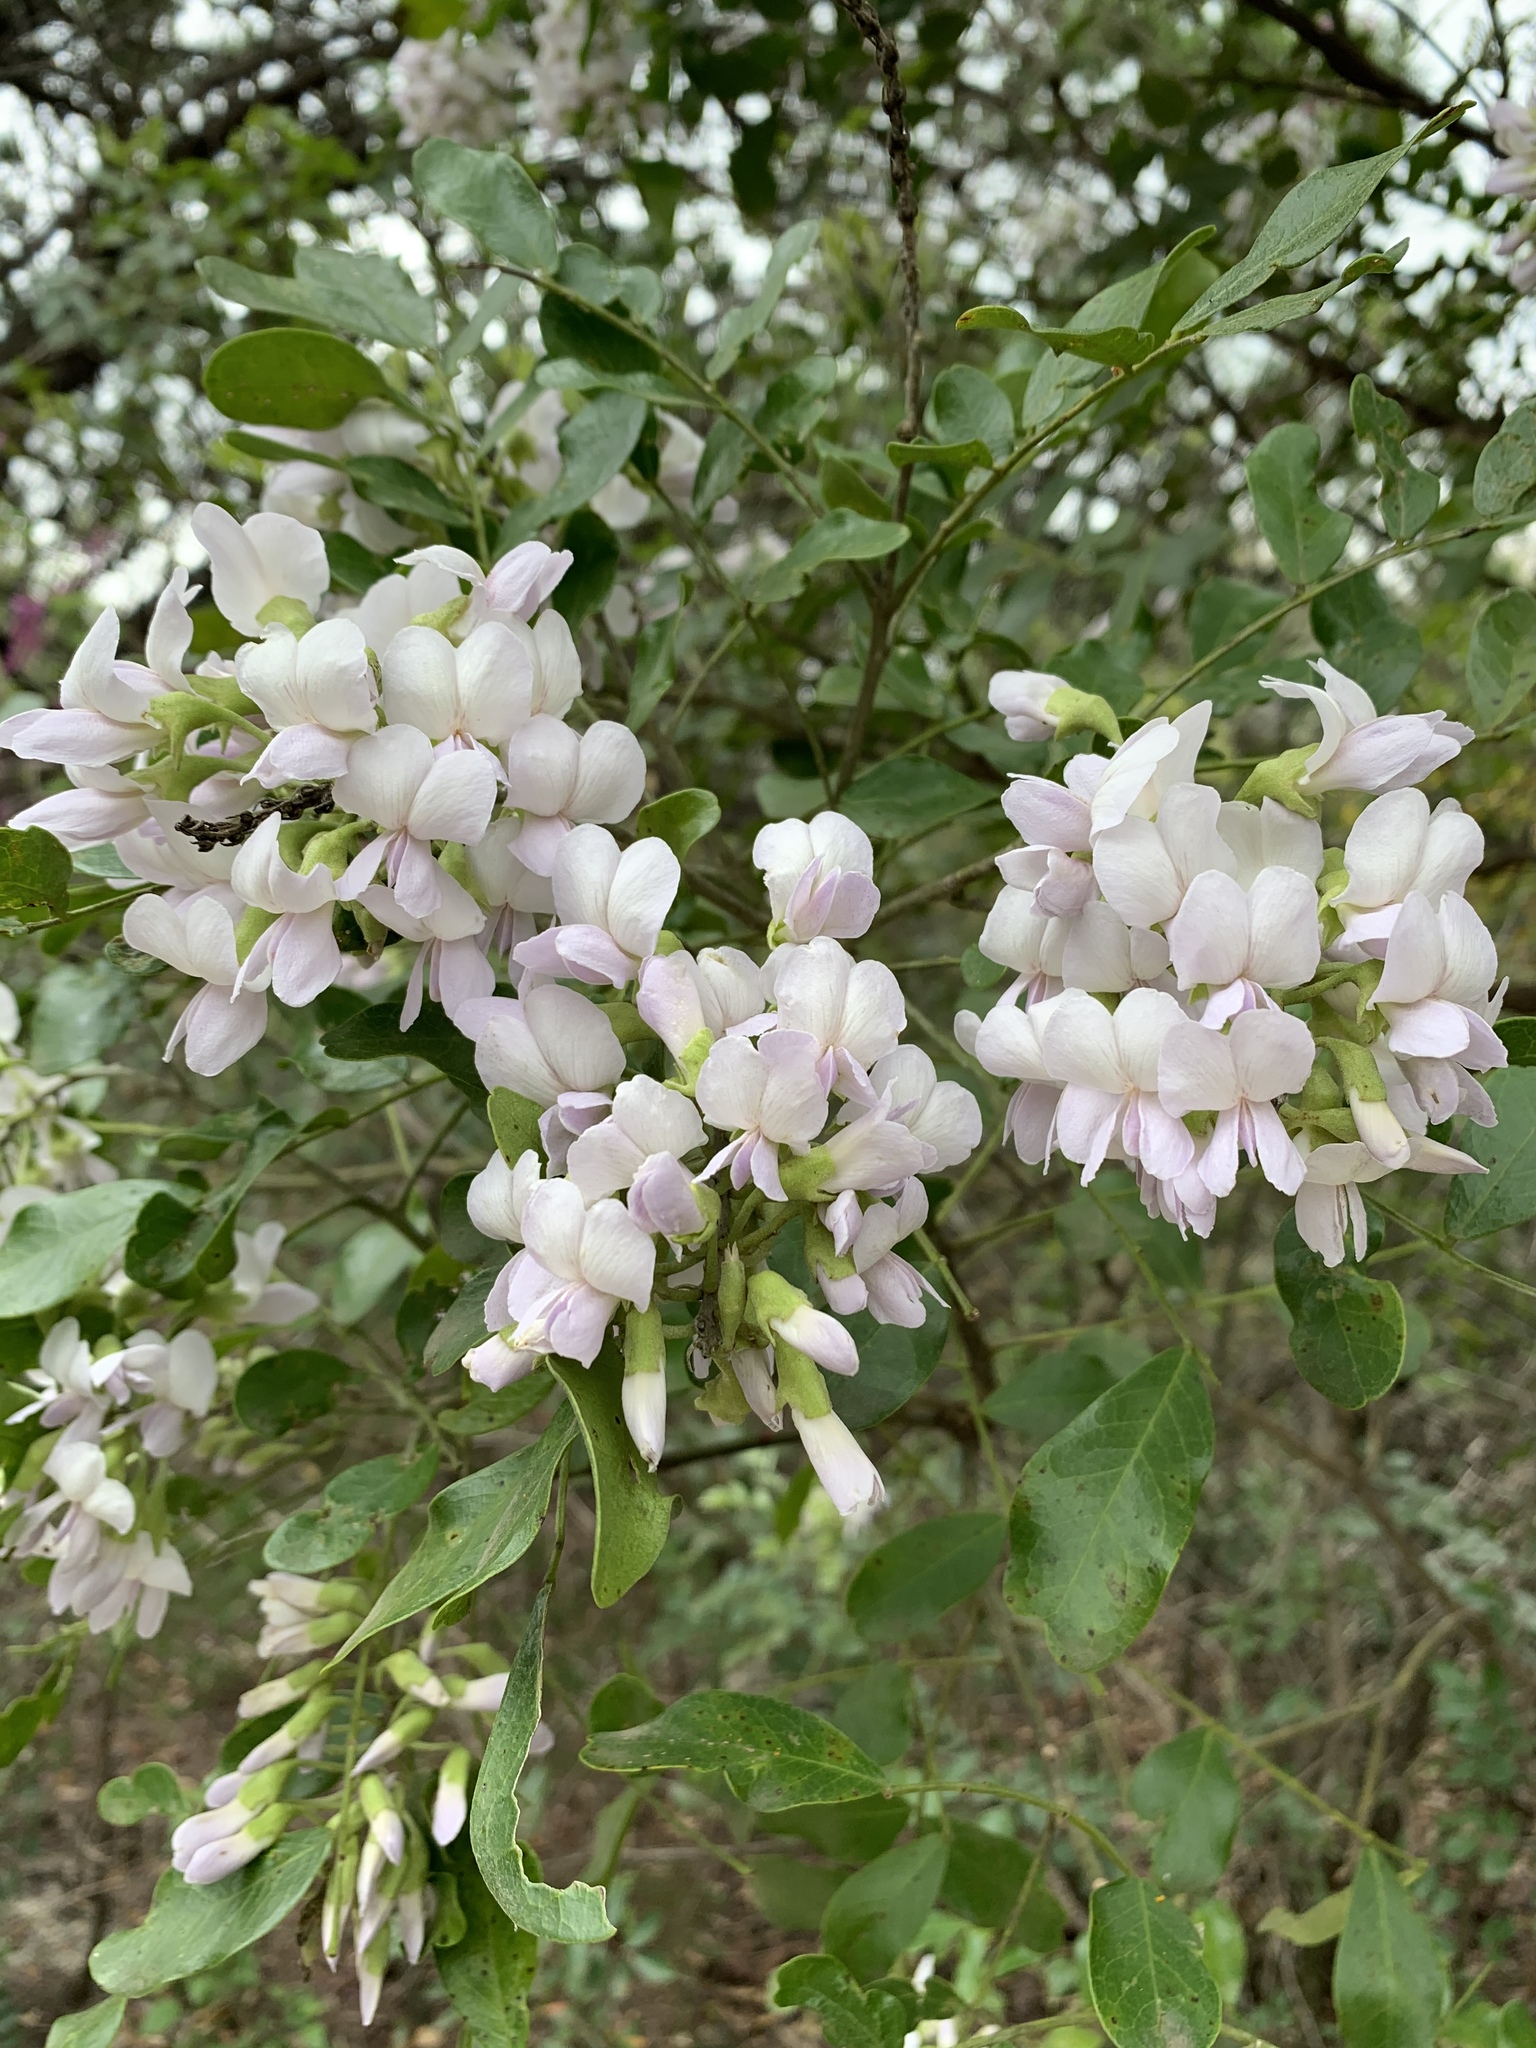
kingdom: Plantae
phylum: Tracheophyta
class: Magnoliopsida
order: Fabales
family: Fabaceae
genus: Dermatophyllum
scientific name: Dermatophyllum secundiflorum
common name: Texas-mountain-laurel
